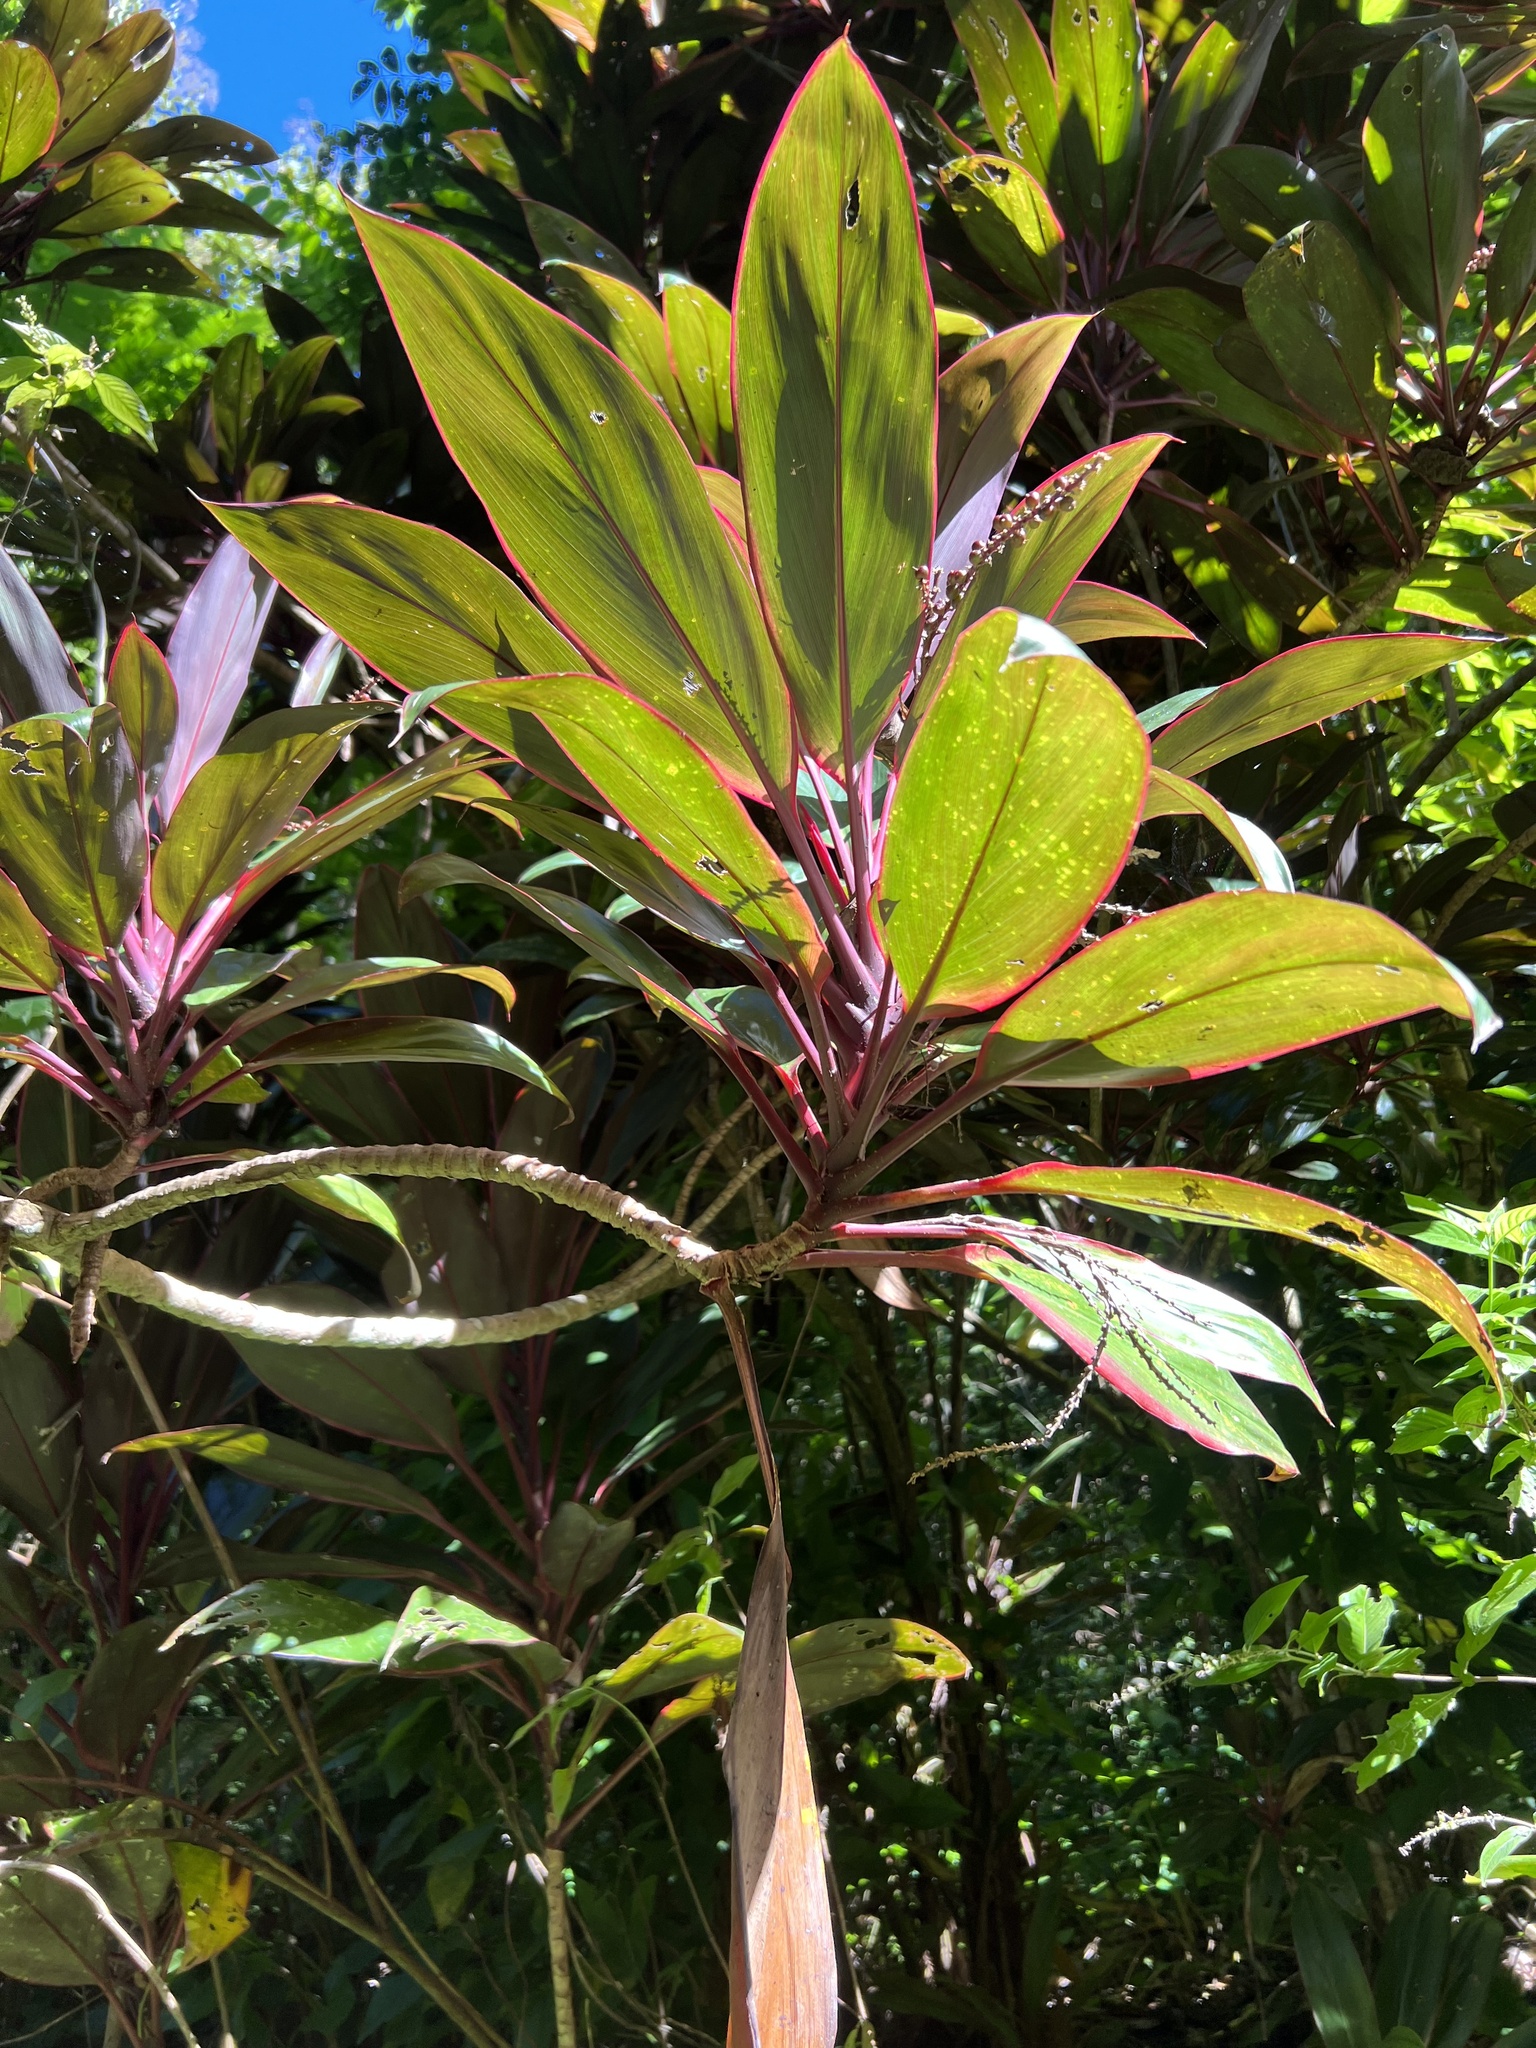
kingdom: Plantae
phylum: Tracheophyta
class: Liliopsida
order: Asparagales
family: Asparagaceae
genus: Cordyline
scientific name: Cordyline fruticosa
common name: Good-luck-plant
